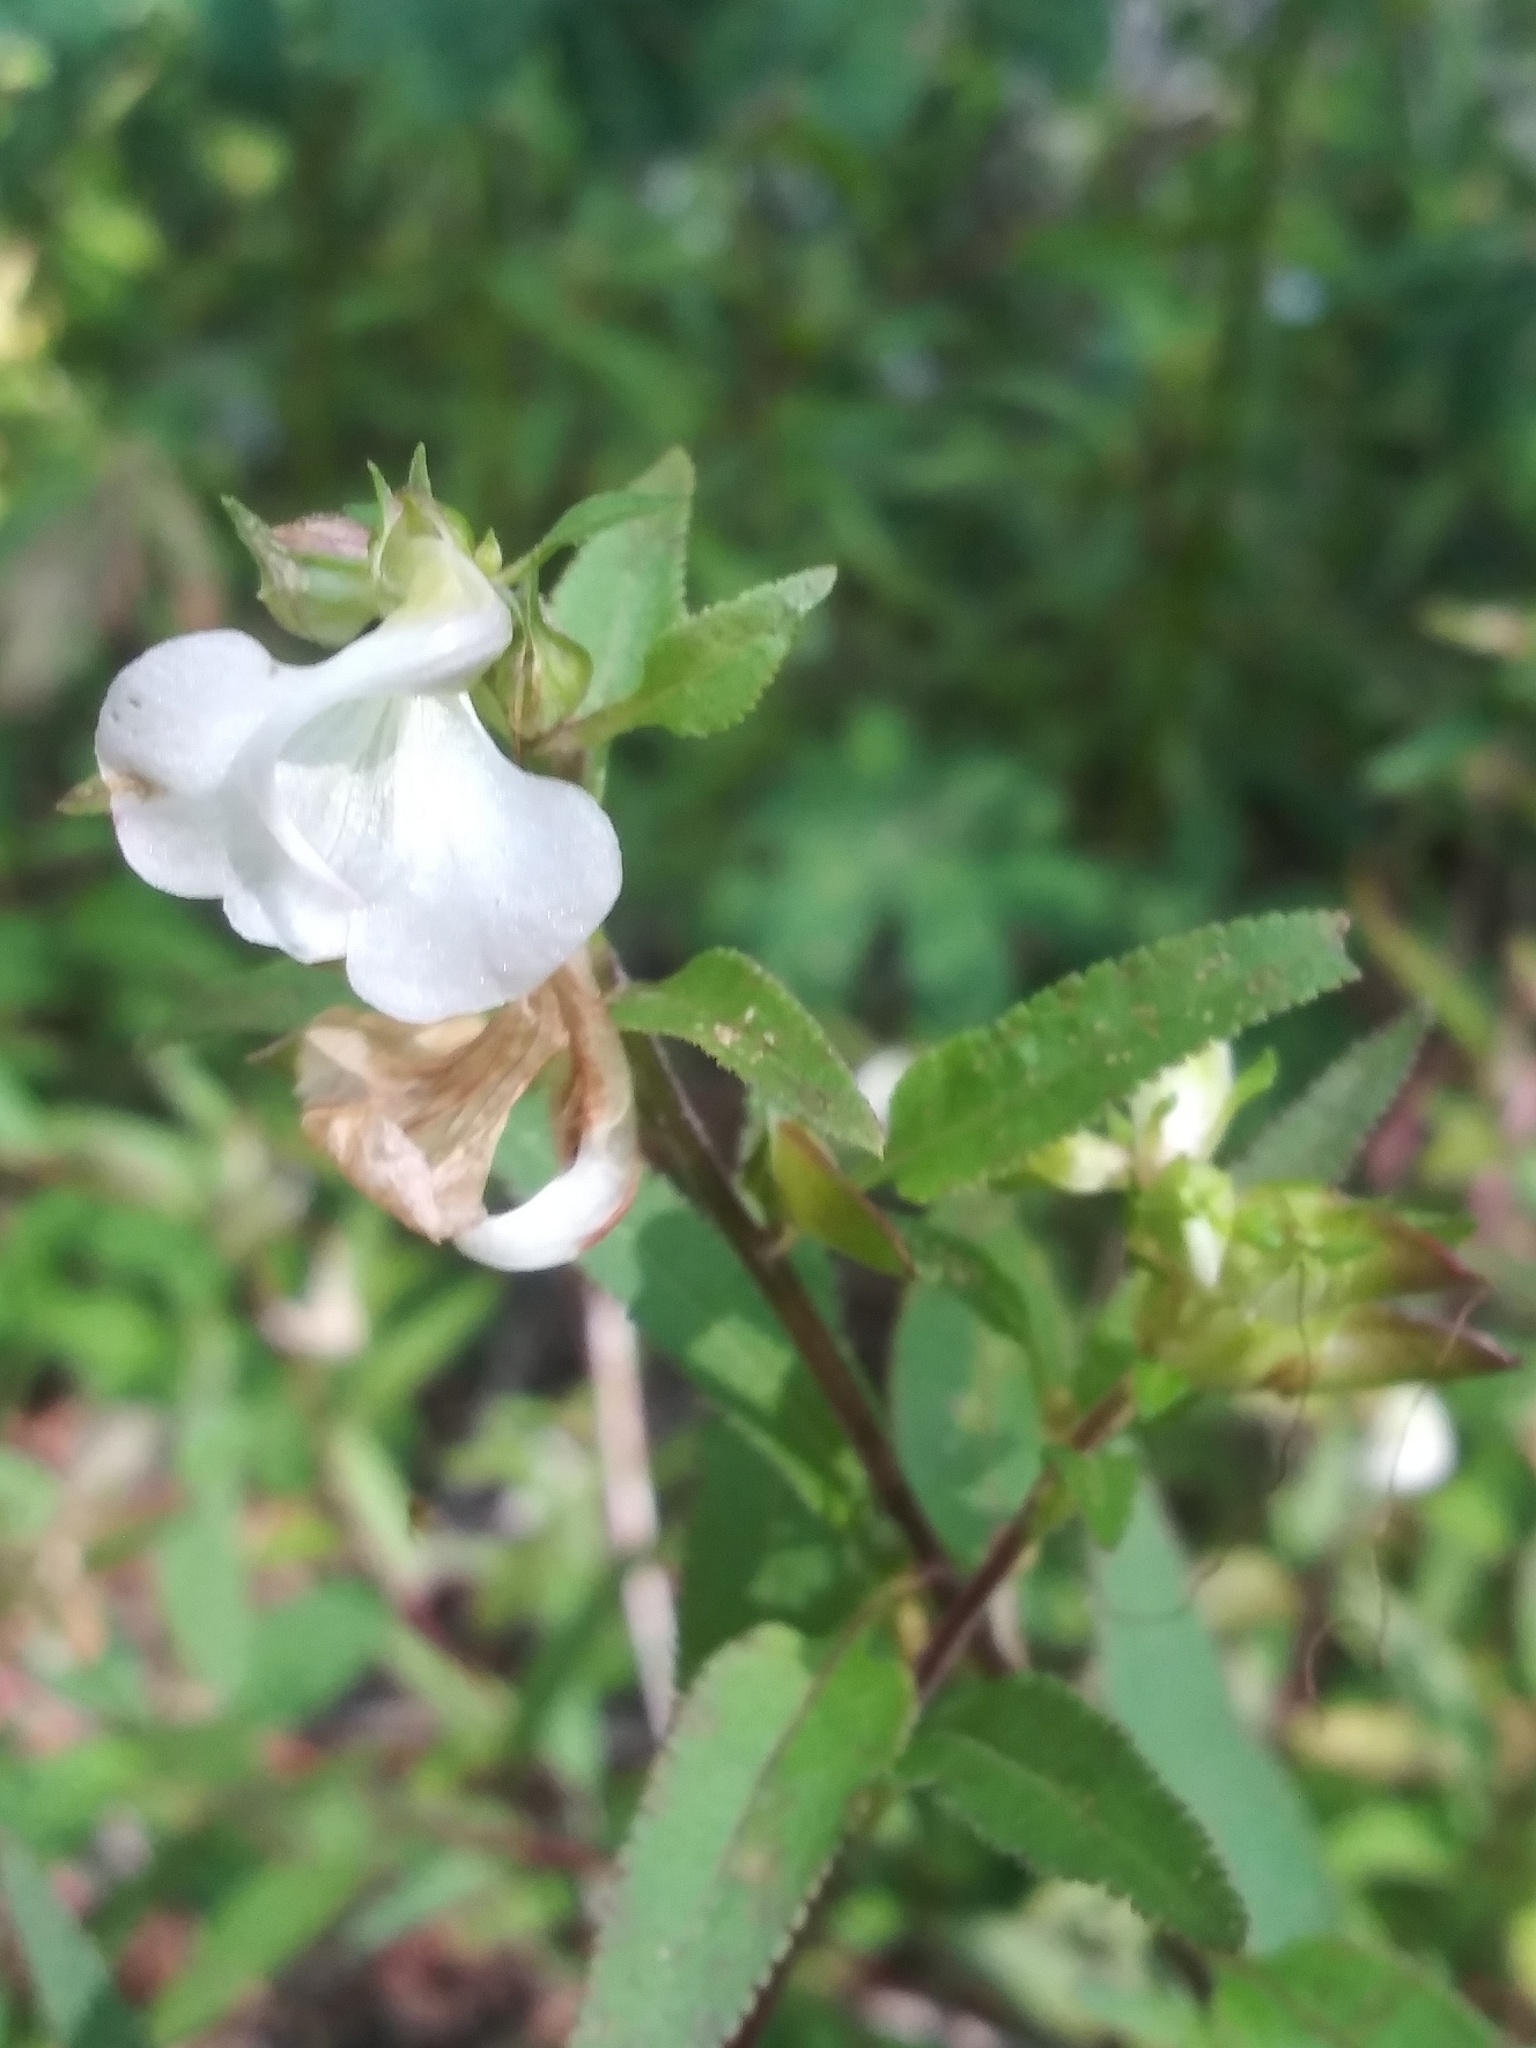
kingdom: Plantae
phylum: Tracheophyta
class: Magnoliopsida
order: Lamiales
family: Orobanchaceae
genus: Pedicularis
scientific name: Pedicularis racemosa
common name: Leafy lousewort
